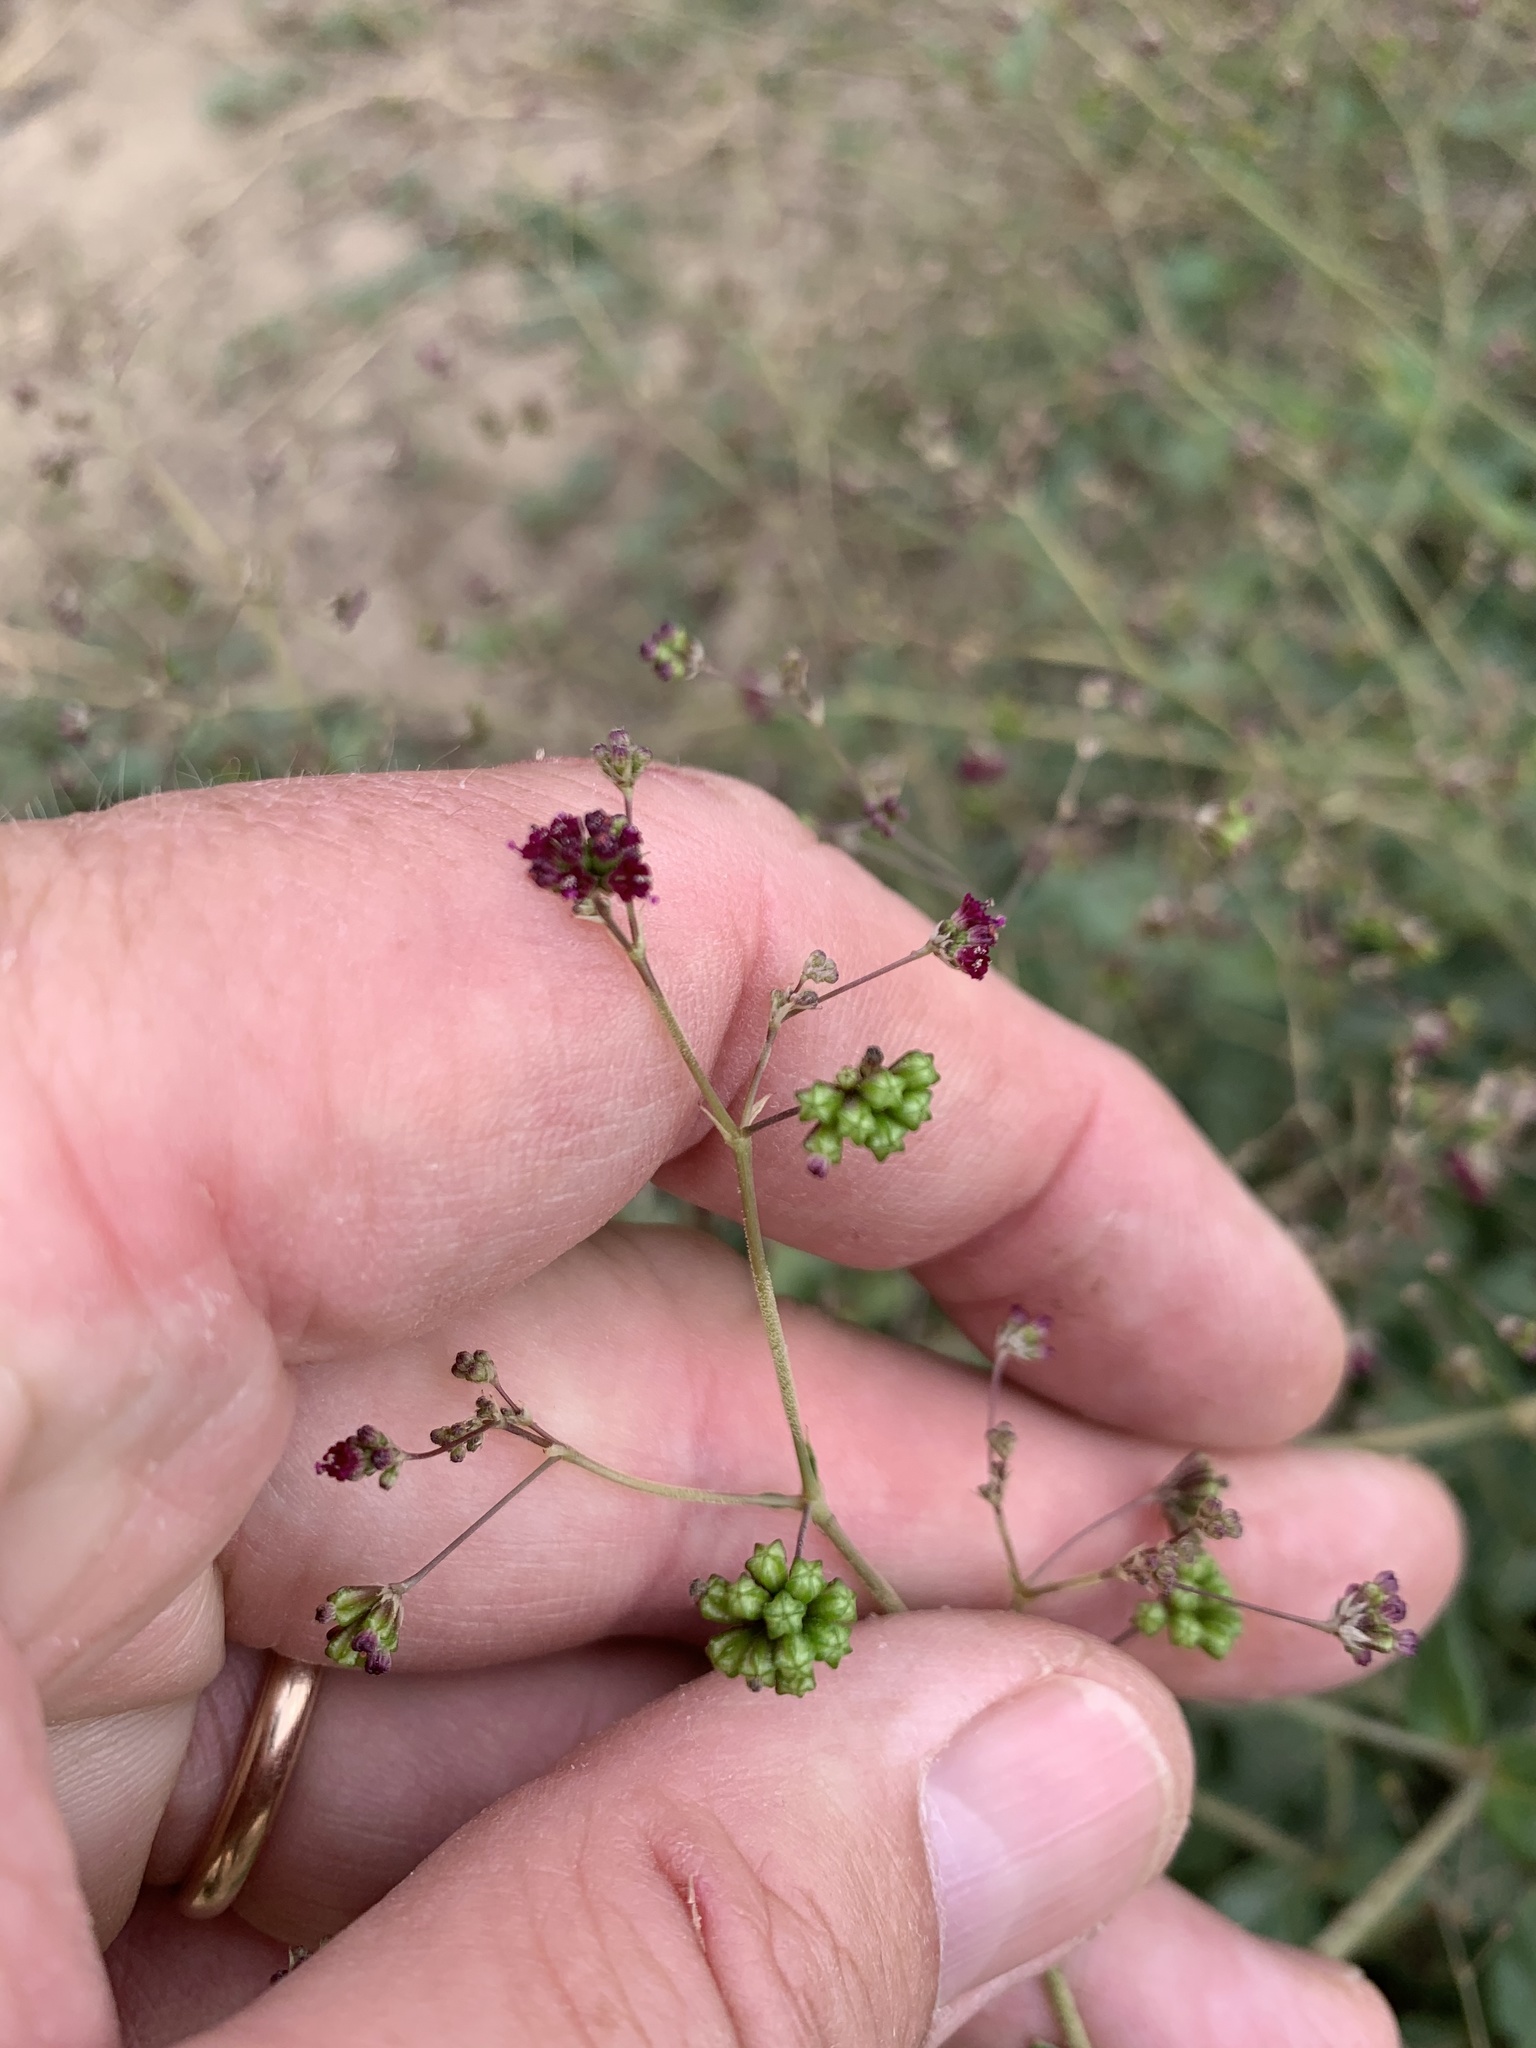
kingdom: Plantae
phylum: Tracheophyta
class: Magnoliopsida
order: Caryophyllales
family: Nyctaginaceae
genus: Boerhavia
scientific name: Boerhavia erecta
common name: Erect spiderling
